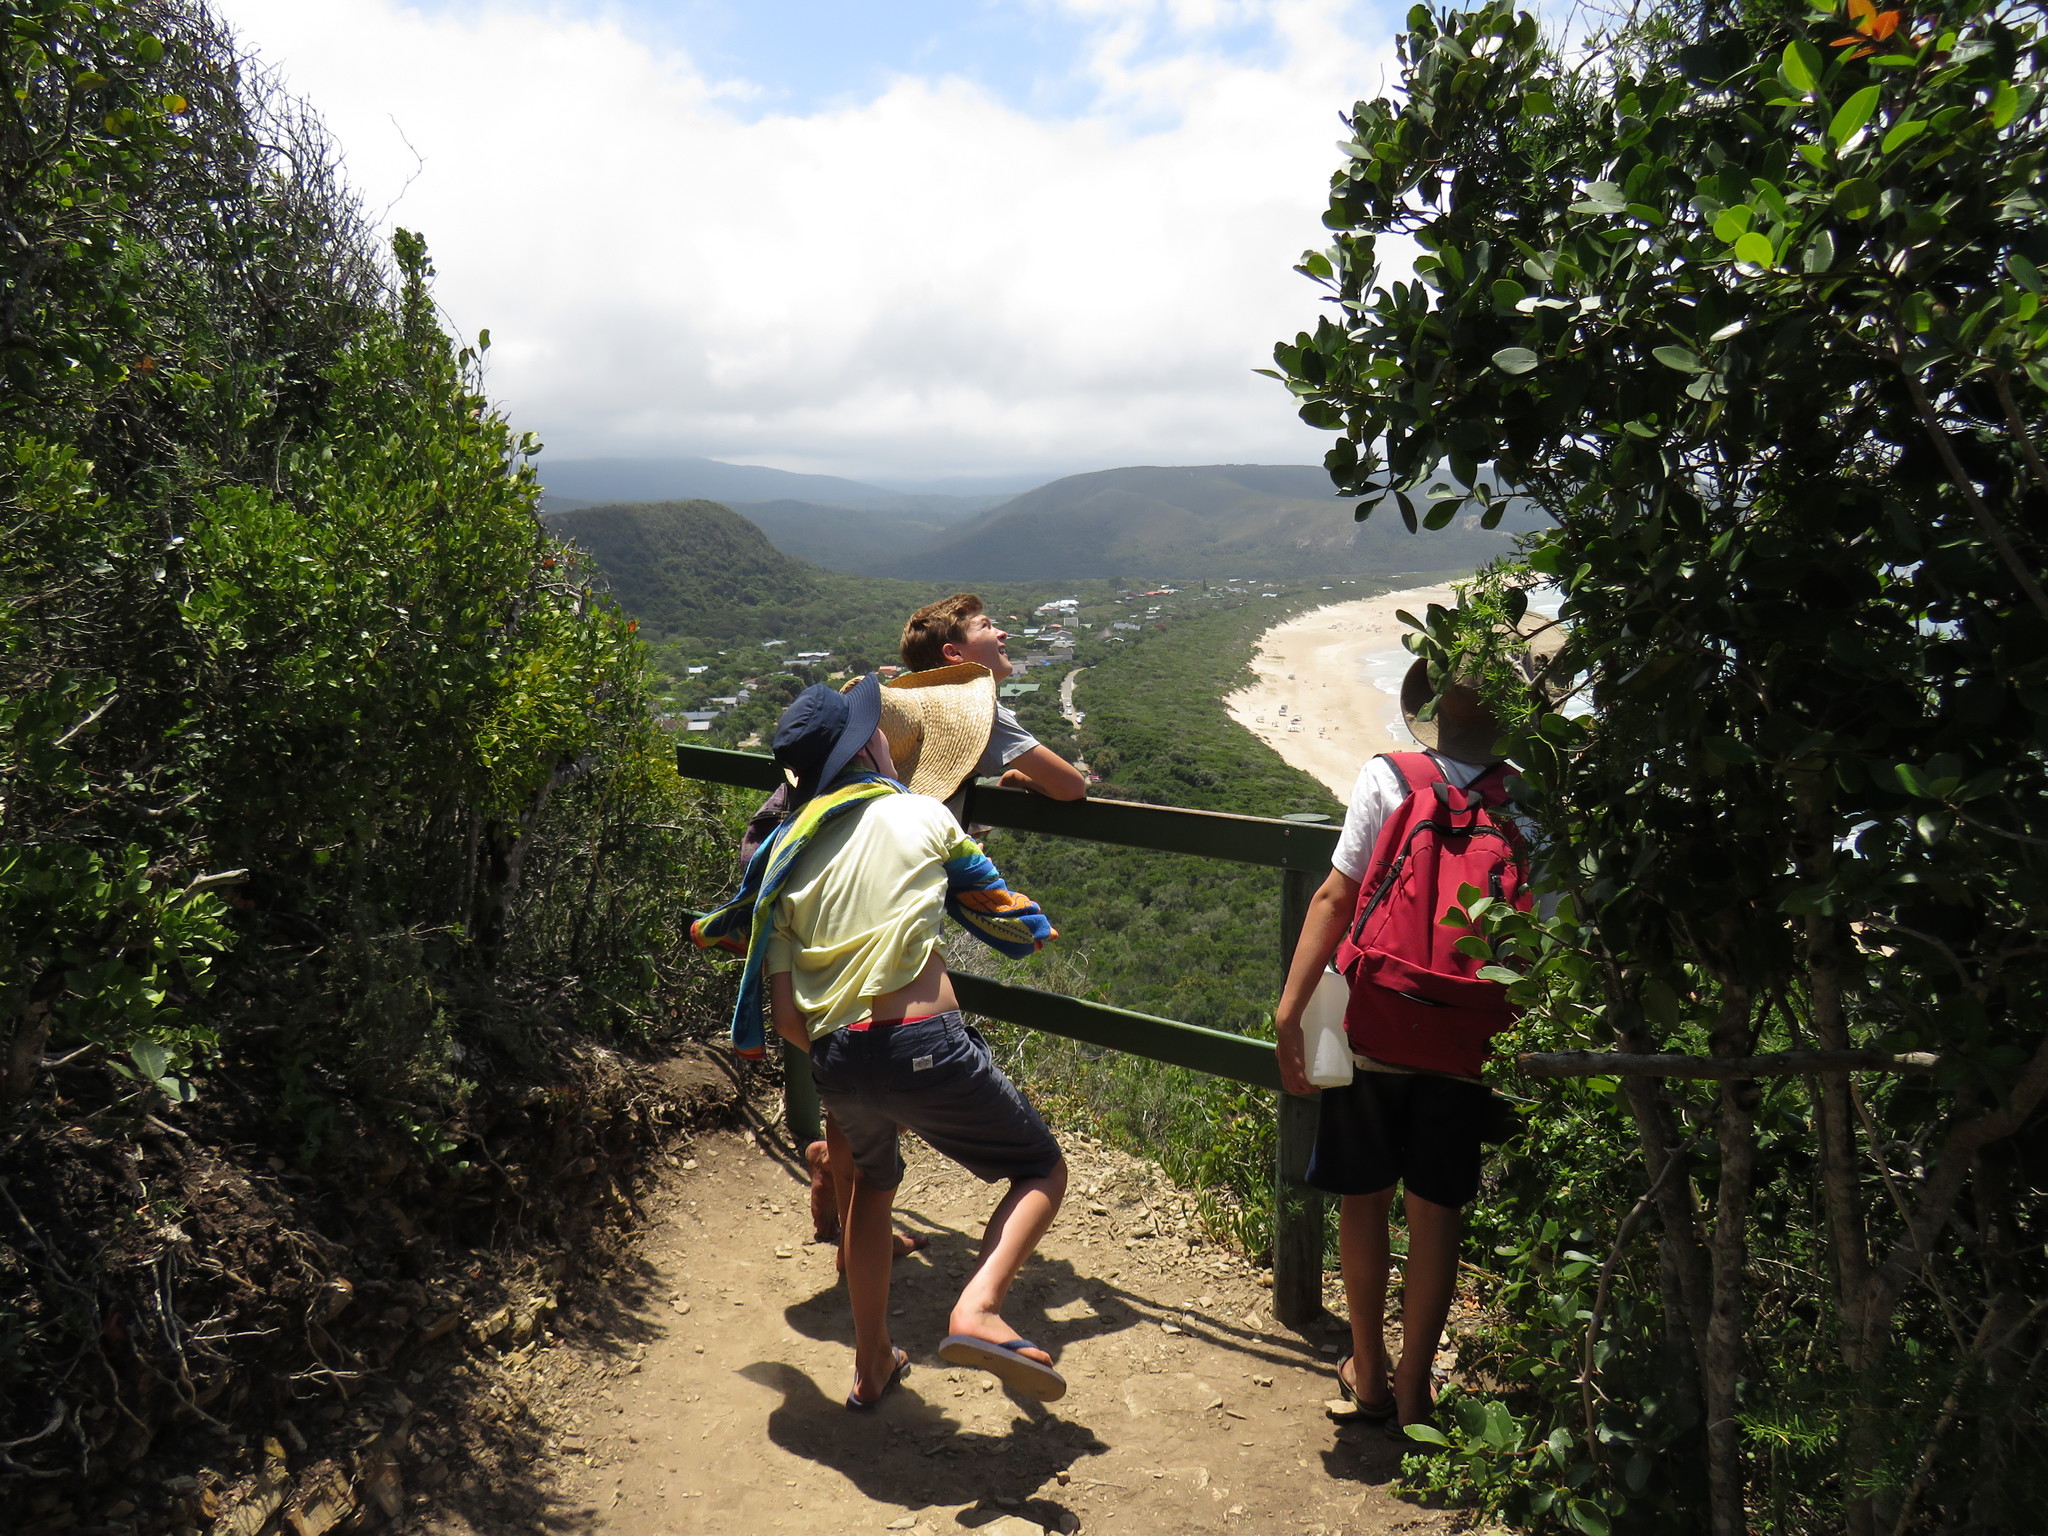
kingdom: Plantae
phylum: Tracheophyta
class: Magnoliopsida
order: Ericales
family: Sapotaceae
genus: Sideroxylon
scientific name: Sideroxylon inerme
